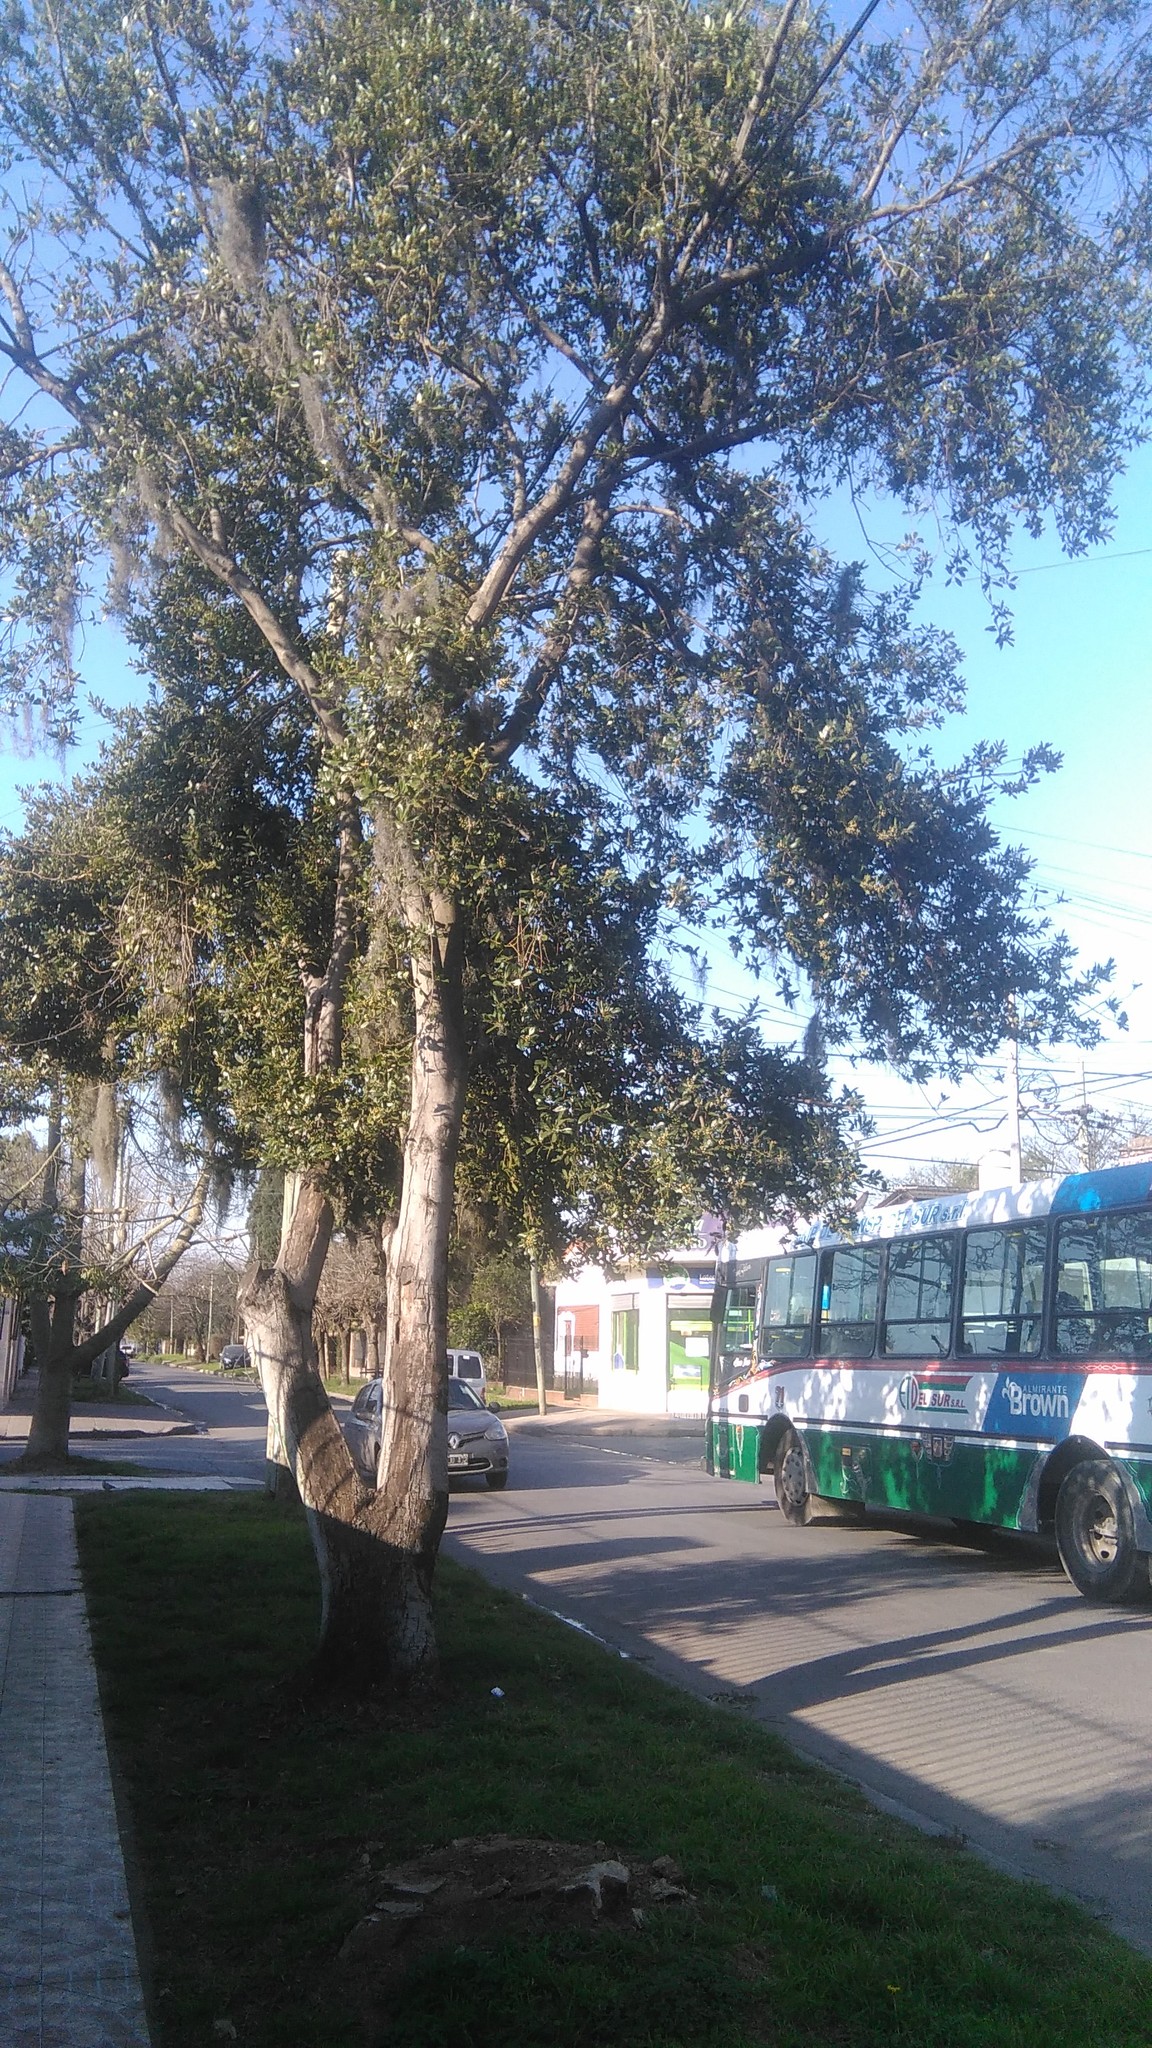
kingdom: Plantae
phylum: Tracheophyta
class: Magnoliopsida
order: Laurales
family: Lauraceae
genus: Laurus
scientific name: Laurus nobilis
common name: Bay
